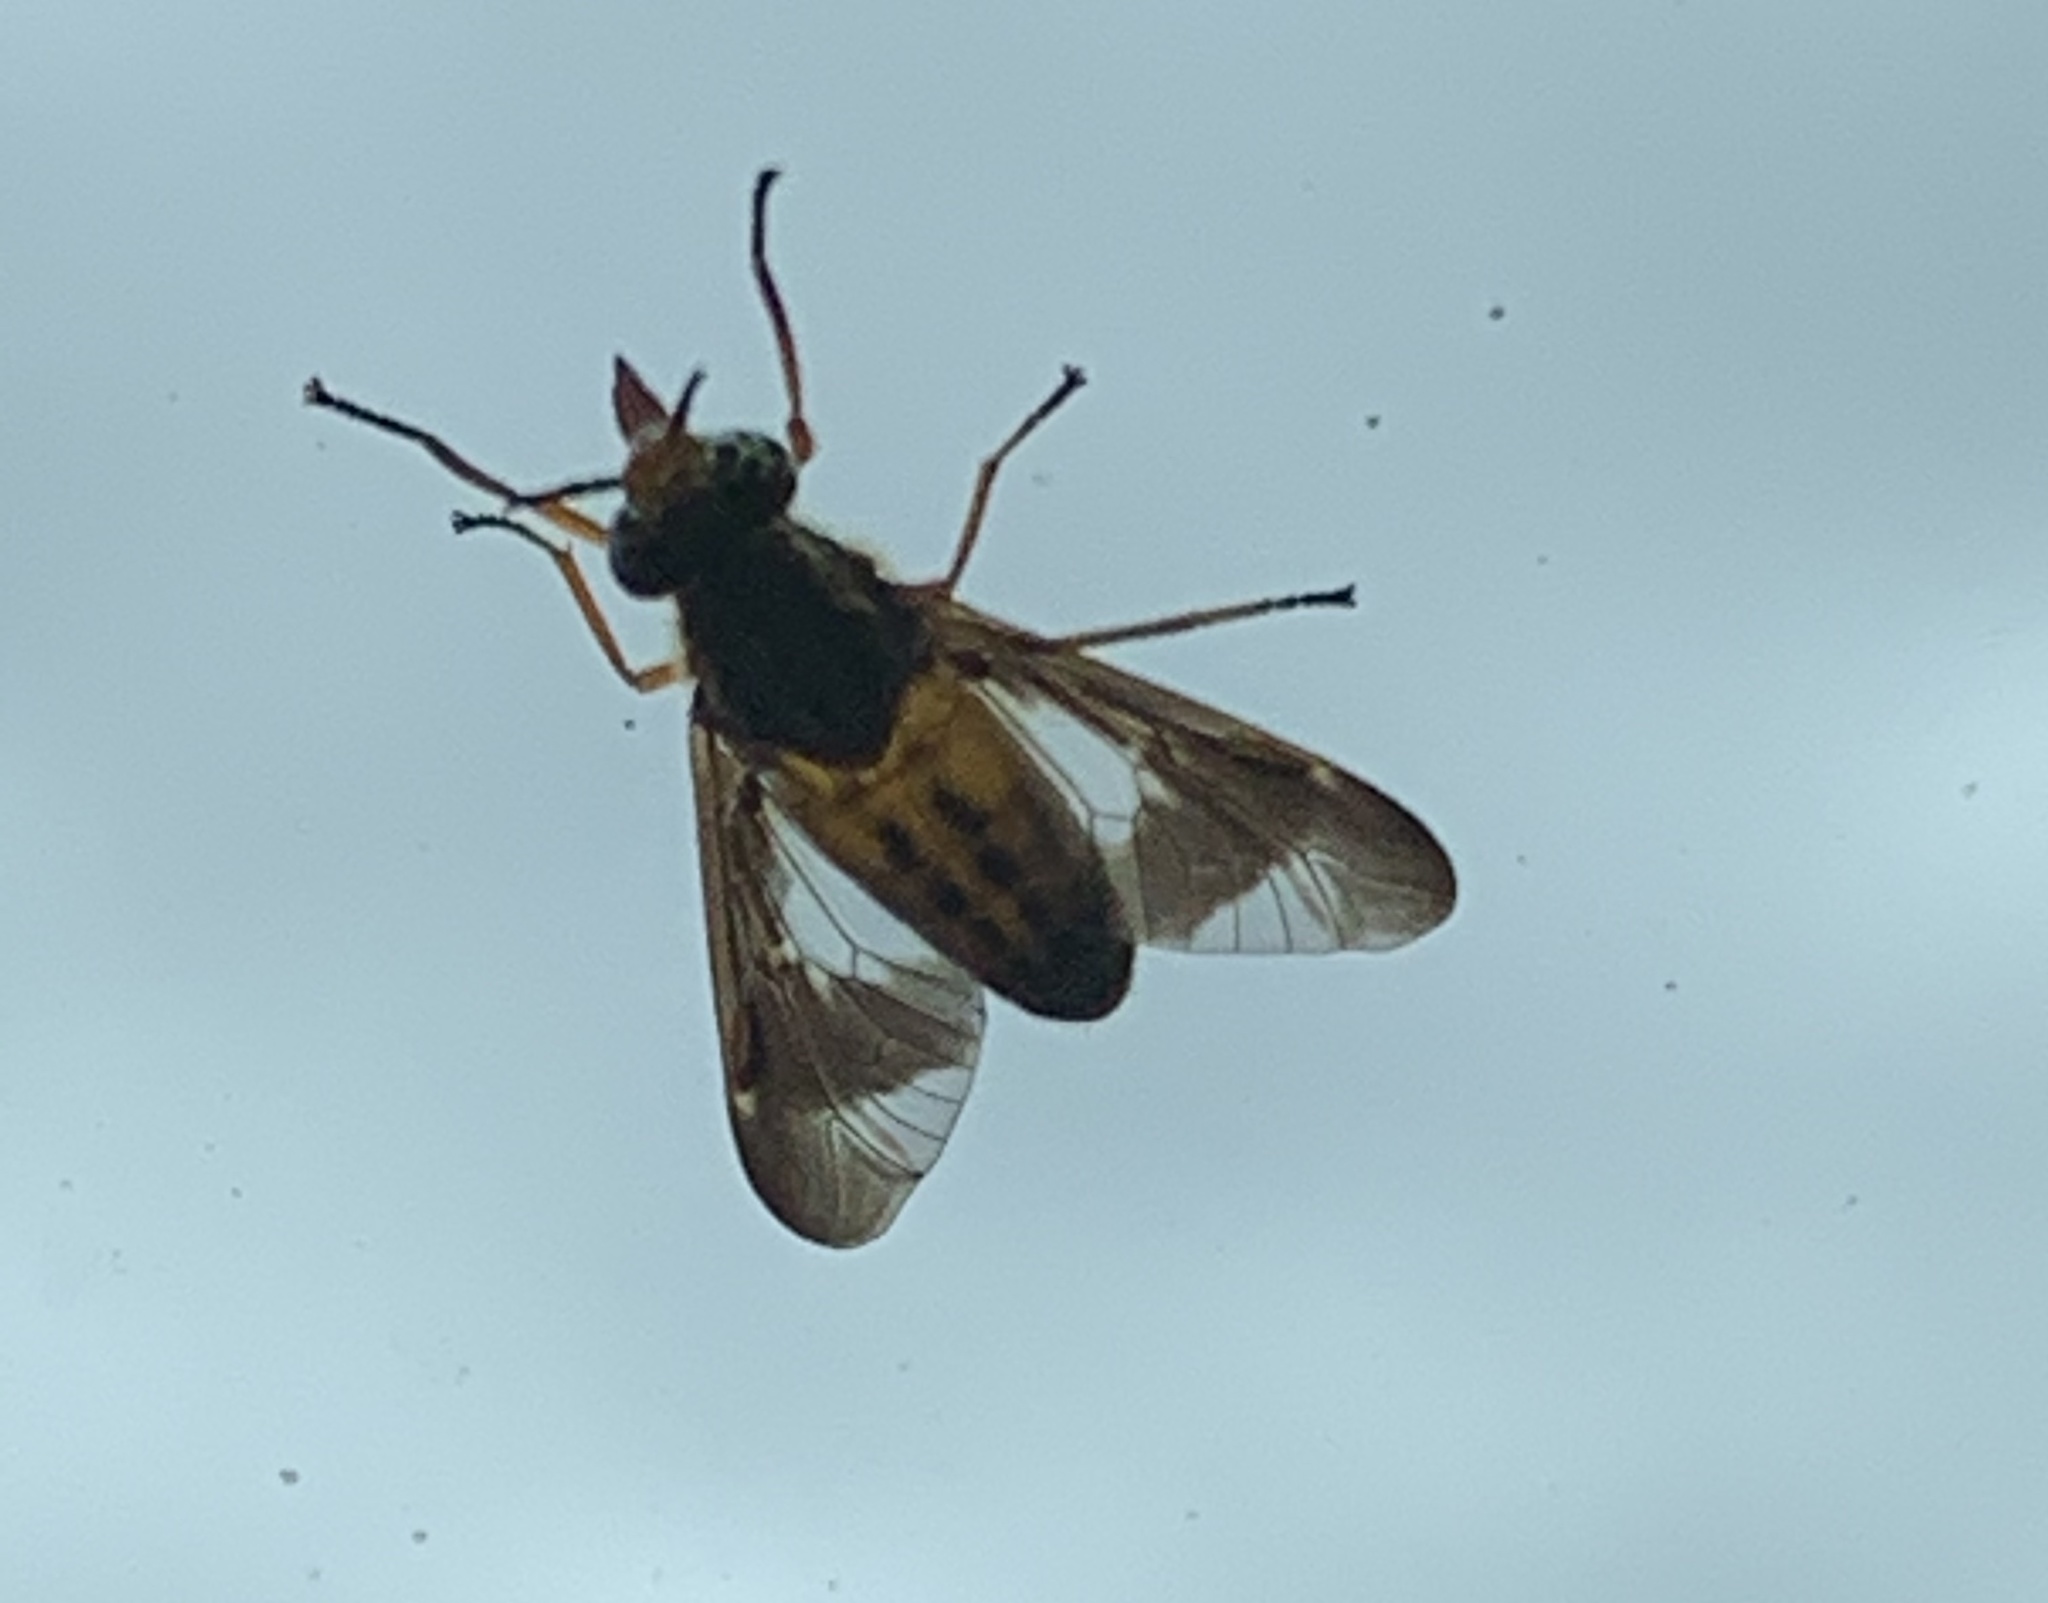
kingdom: Animalia
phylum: Arthropoda
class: Insecta
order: Diptera
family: Tabanidae
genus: Chrysops
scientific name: Chrysops vittatus
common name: Striped deer fly
